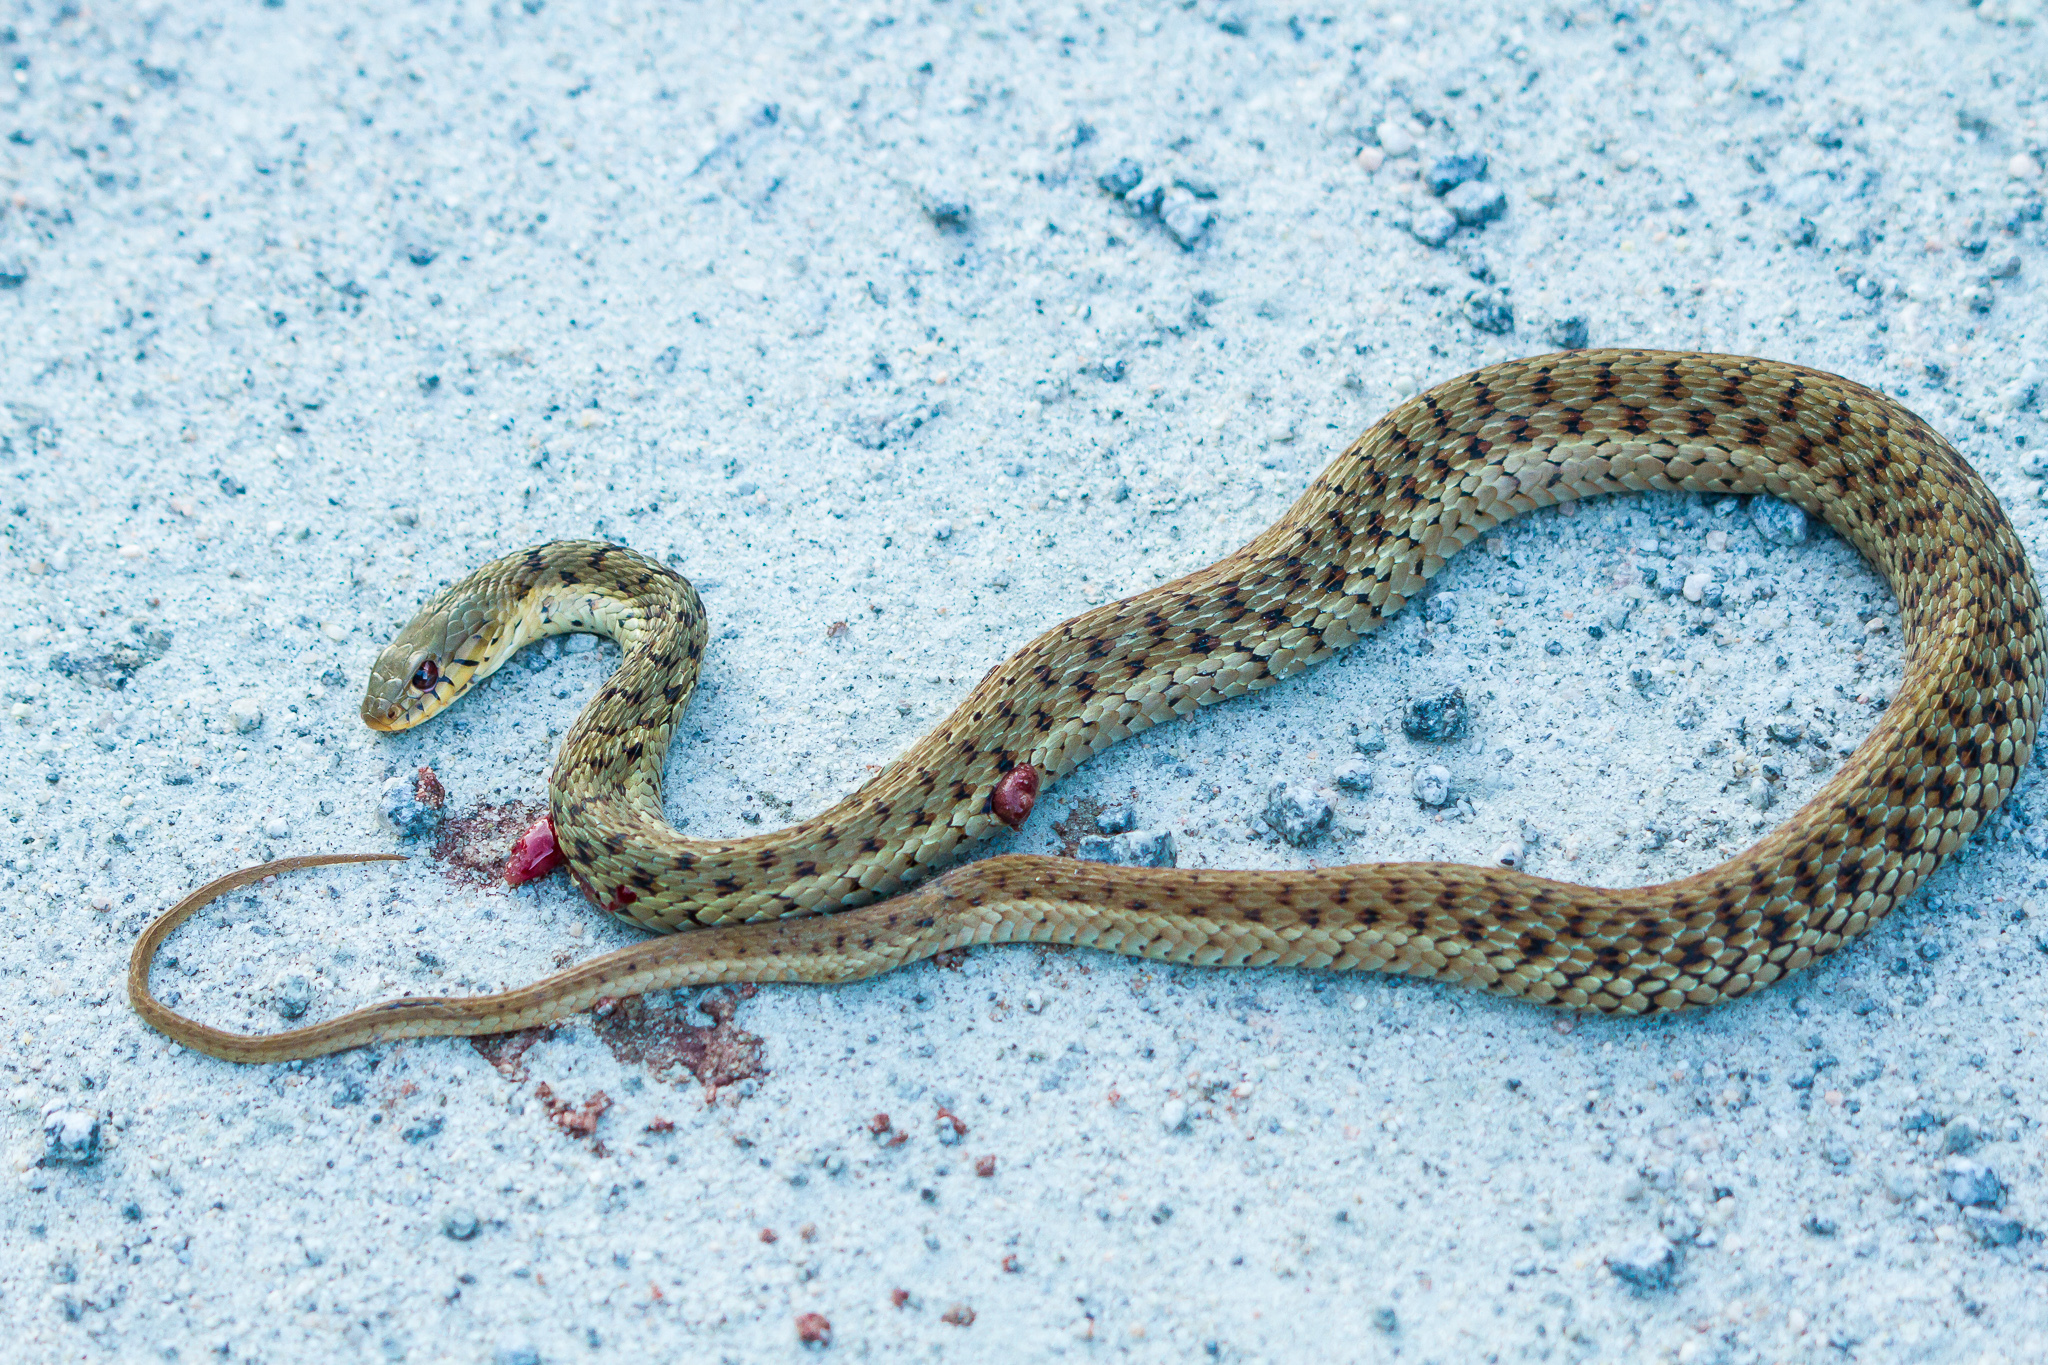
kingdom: Animalia
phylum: Chordata
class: Squamata
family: Colubridae
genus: Thamnophis
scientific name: Thamnophis sirtalis
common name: Common garter snake
